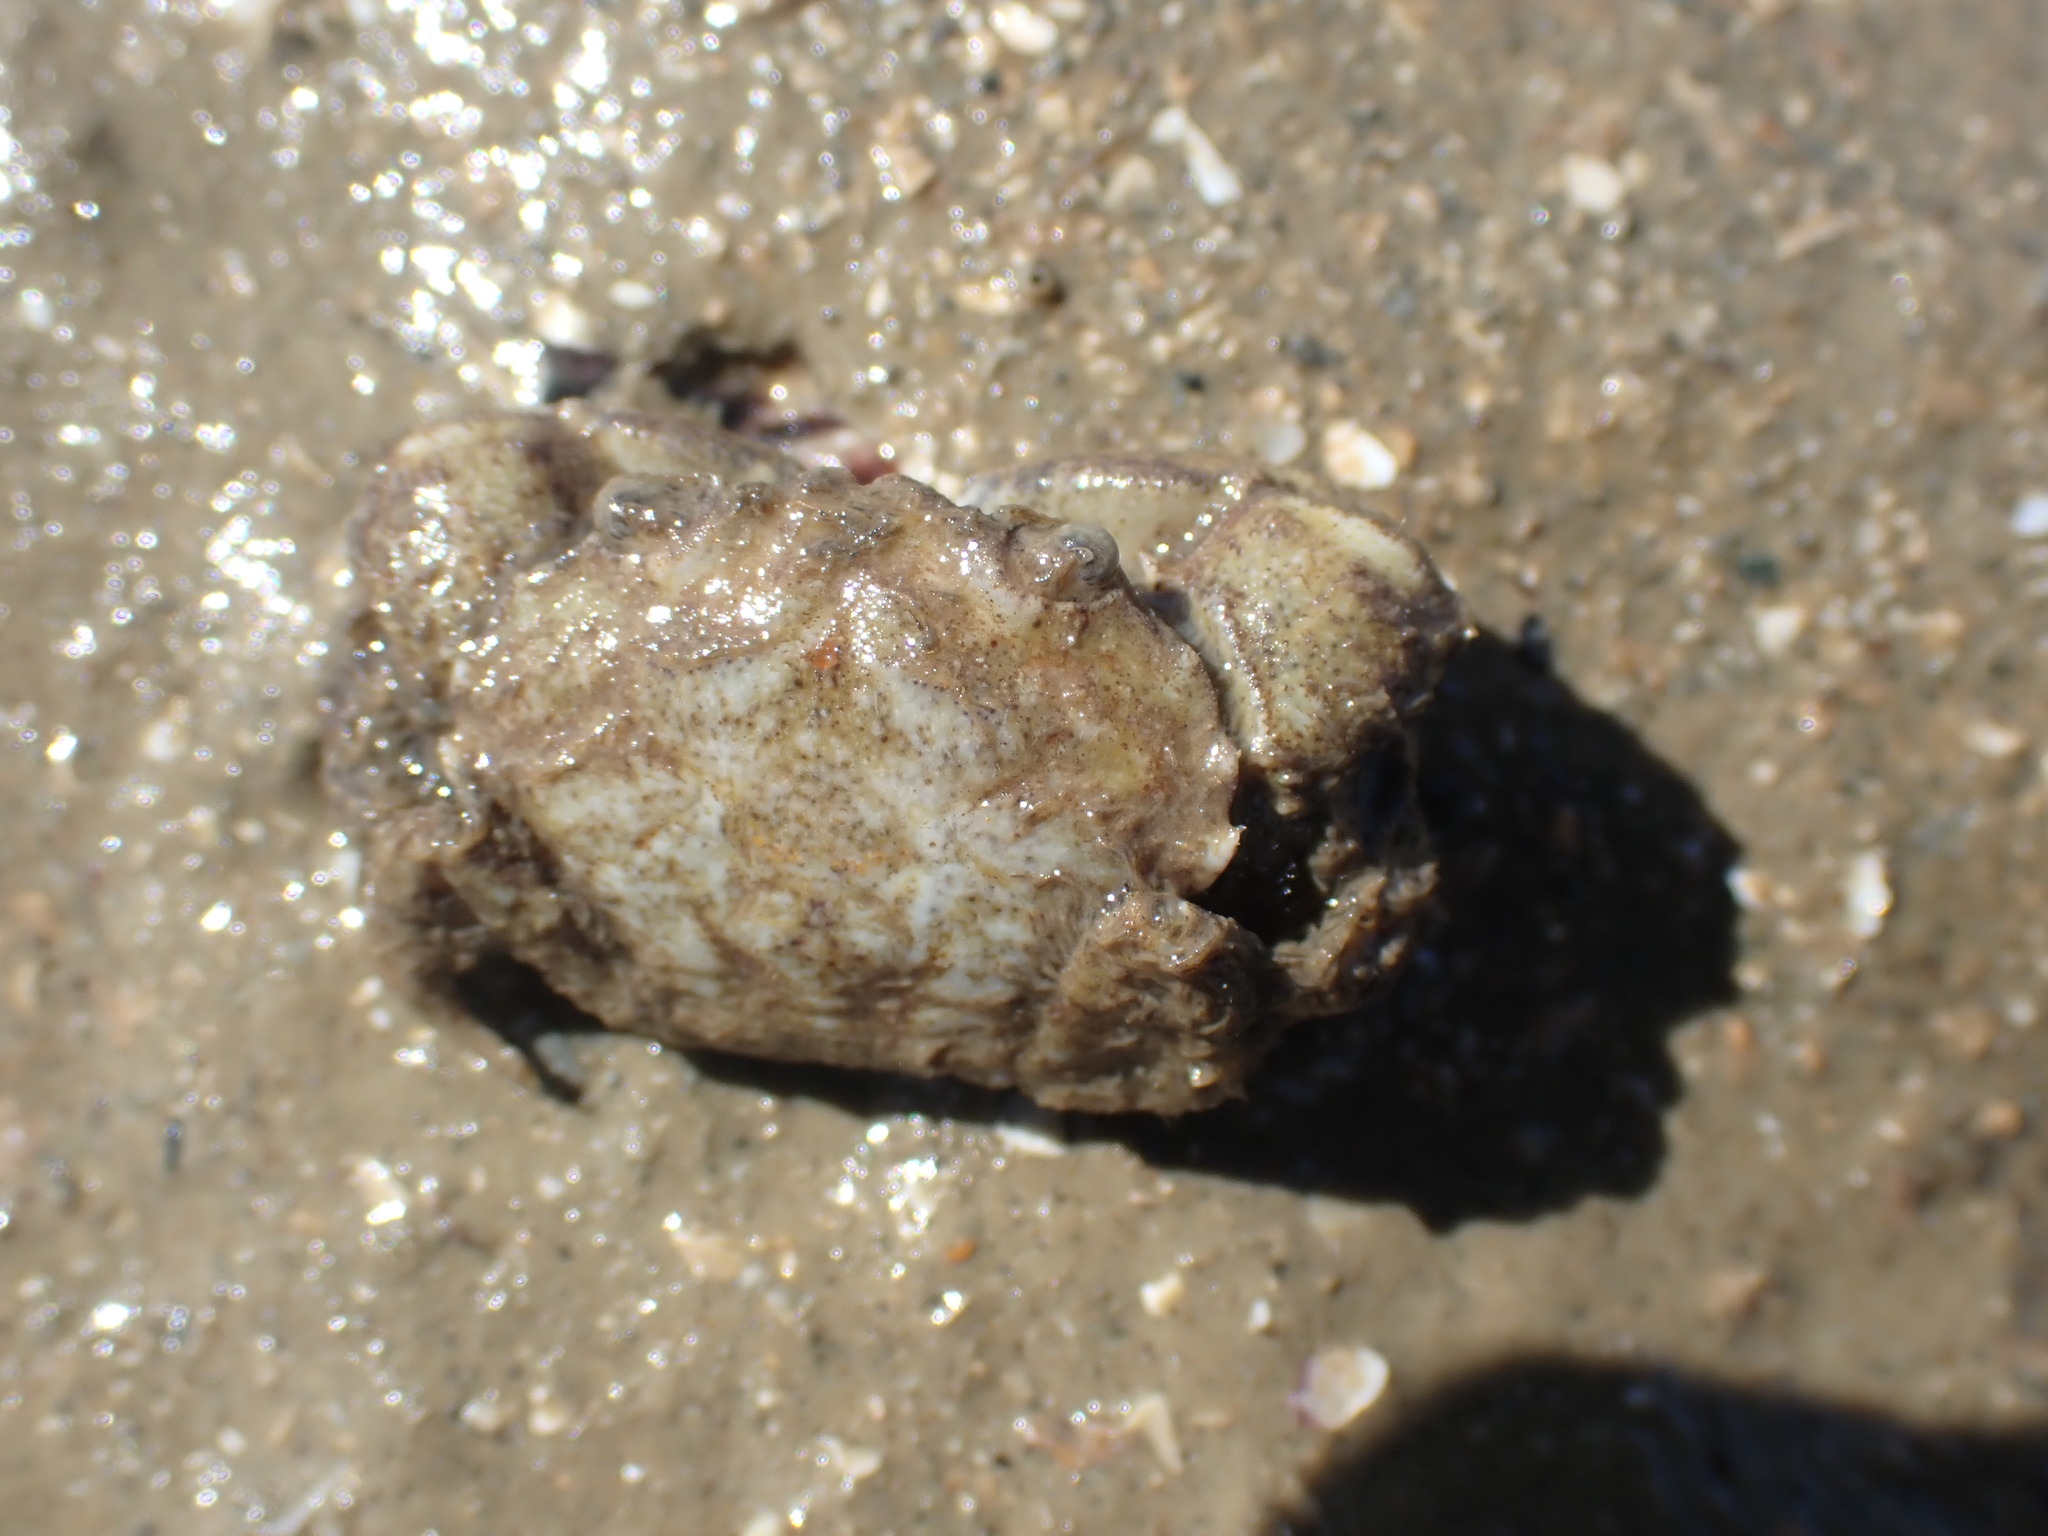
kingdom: Animalia
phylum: Arthropoda
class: Malacostraca
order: Decapoda
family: Pilumnidae
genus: Pilumnopeus
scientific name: Pilumnopeus serratifrons
